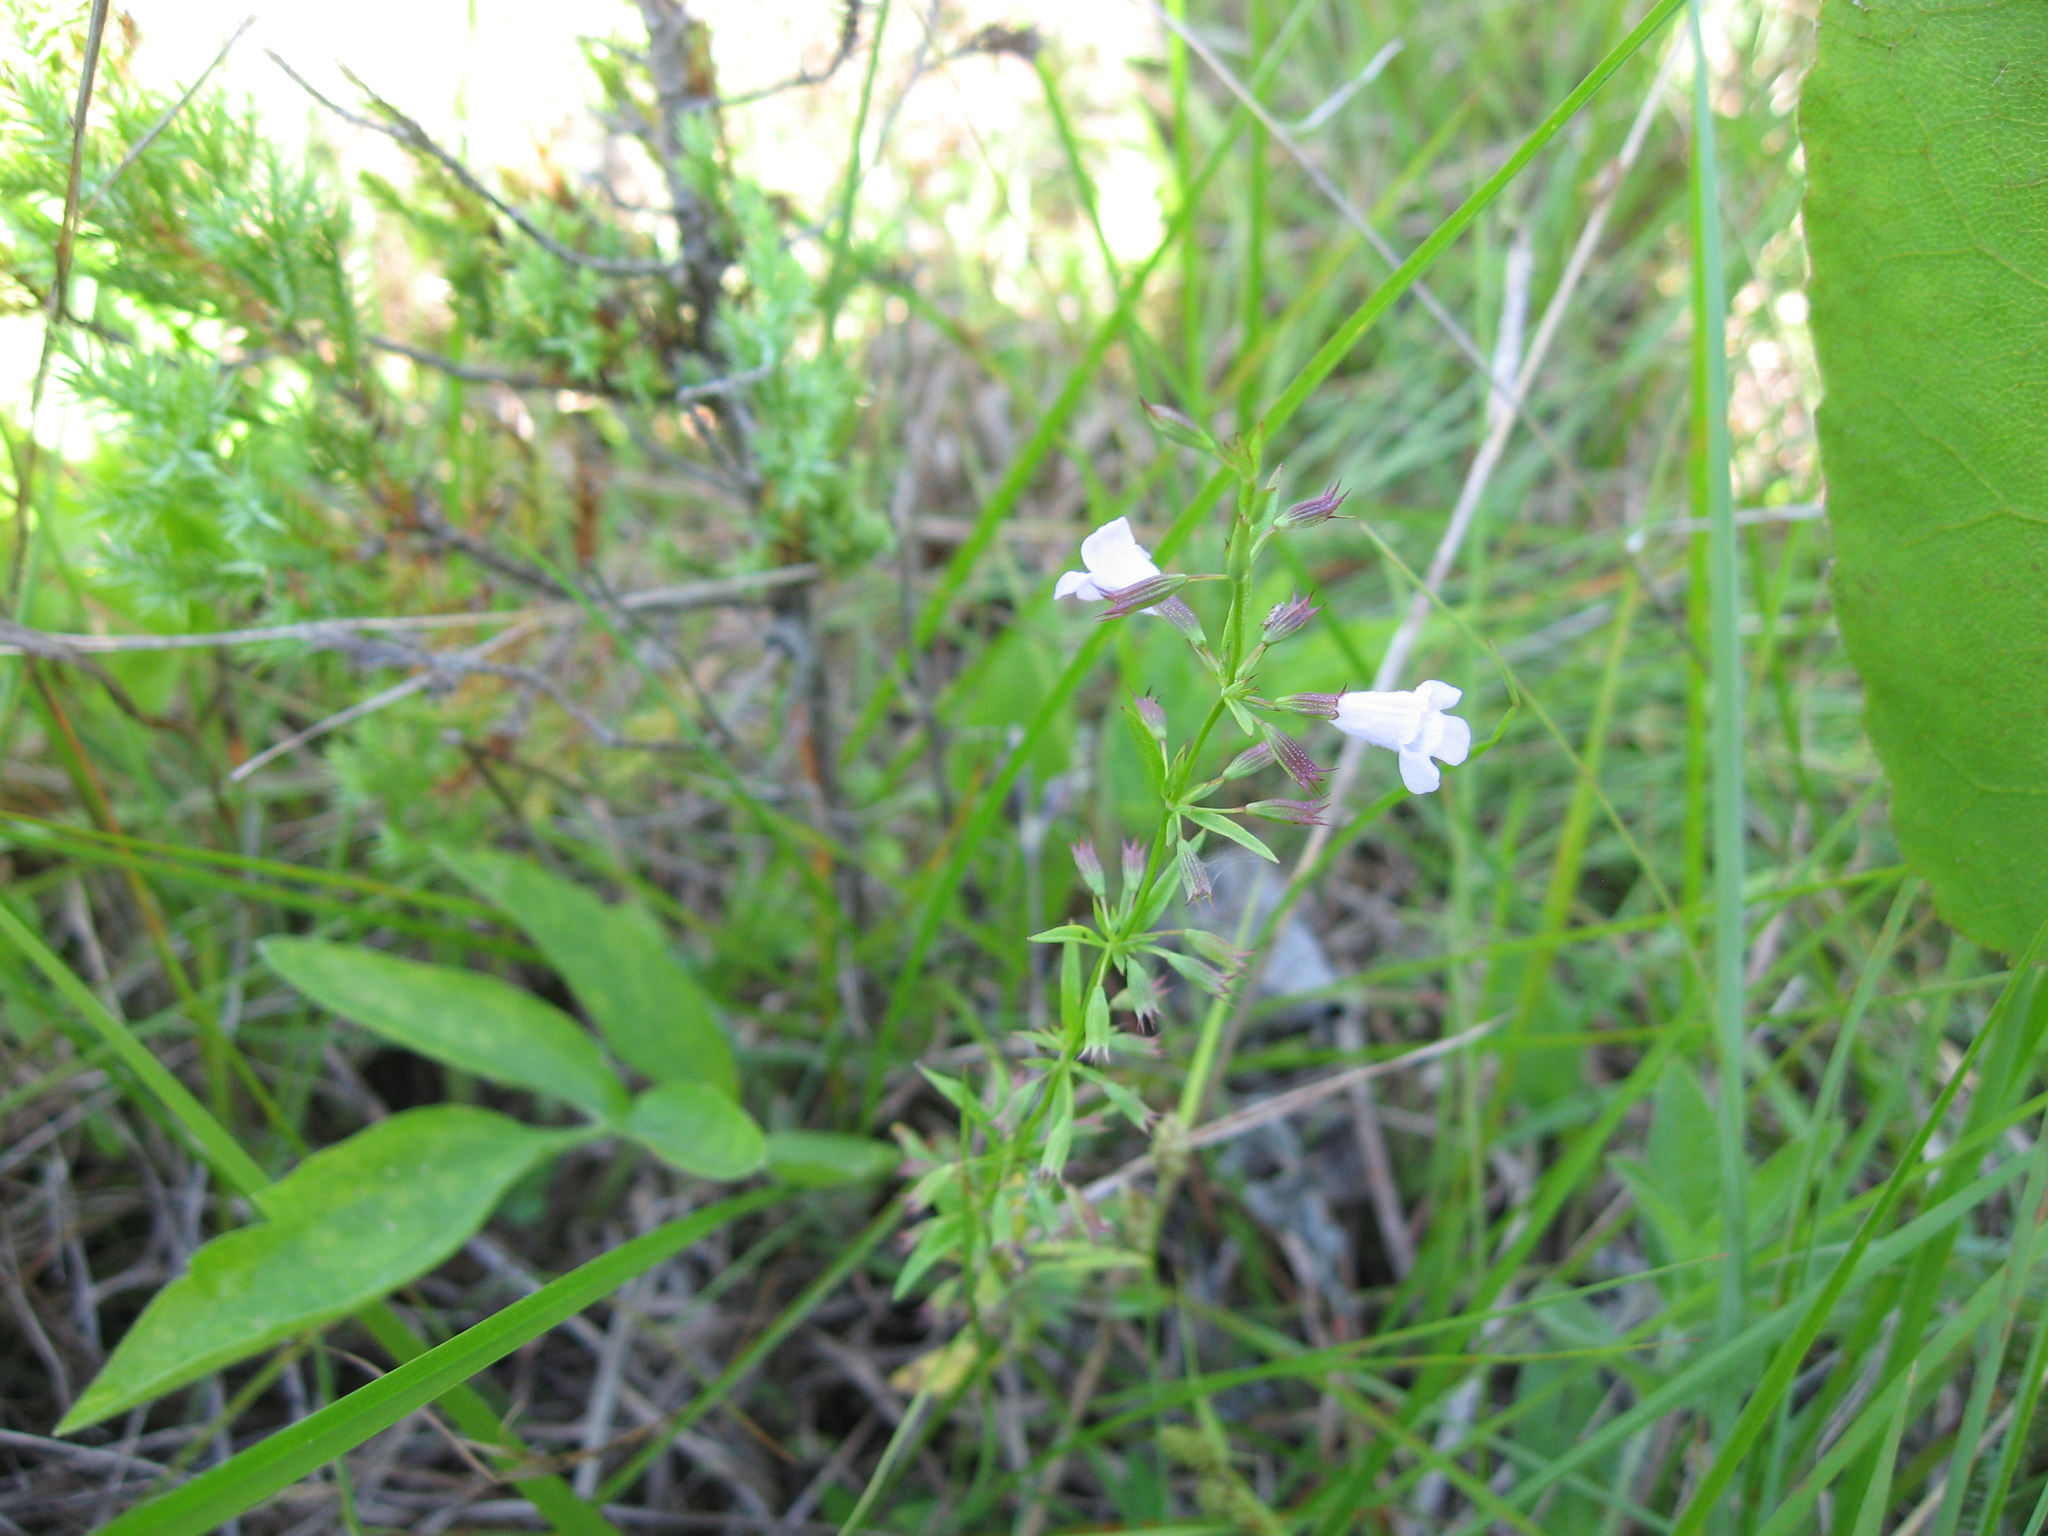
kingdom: Plantae
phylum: Tracheophyta
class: Magnoliopsida
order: Lamiales
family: Lamiaceae
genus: Clinopodium
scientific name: Clinopodium glabellum
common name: Ozark calamint
